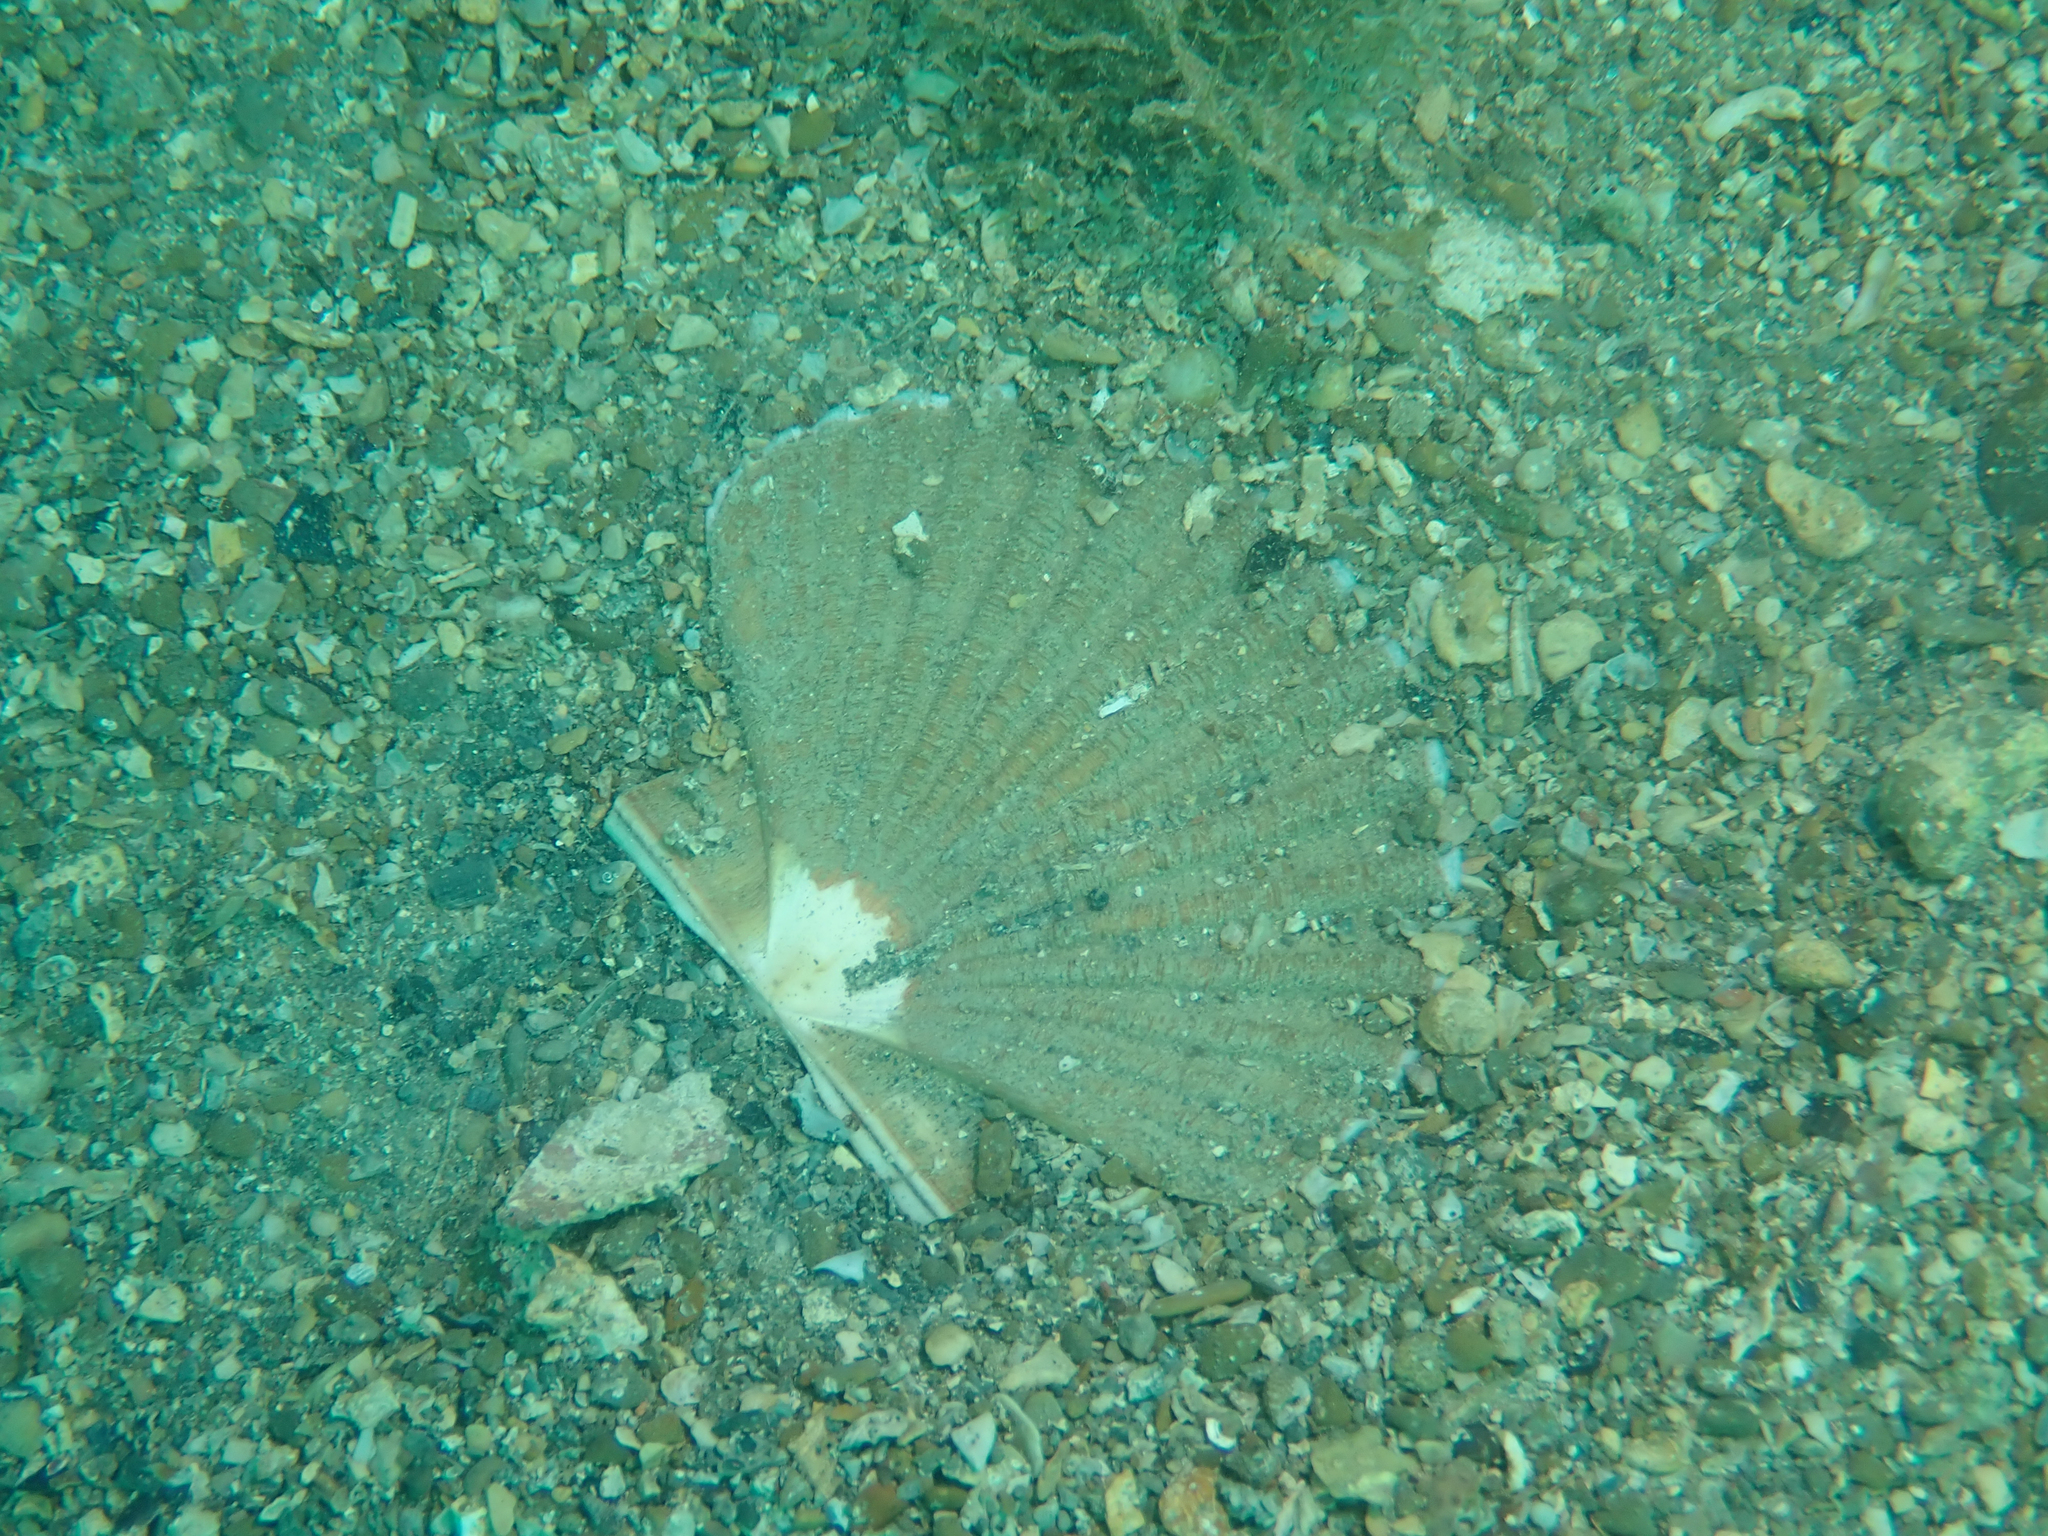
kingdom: Animalia
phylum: Mollusca
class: Bivalvia
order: Pectinida
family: Pectinidae
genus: Pecten
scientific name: Pecten jacobaeus
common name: St.james's scallop
